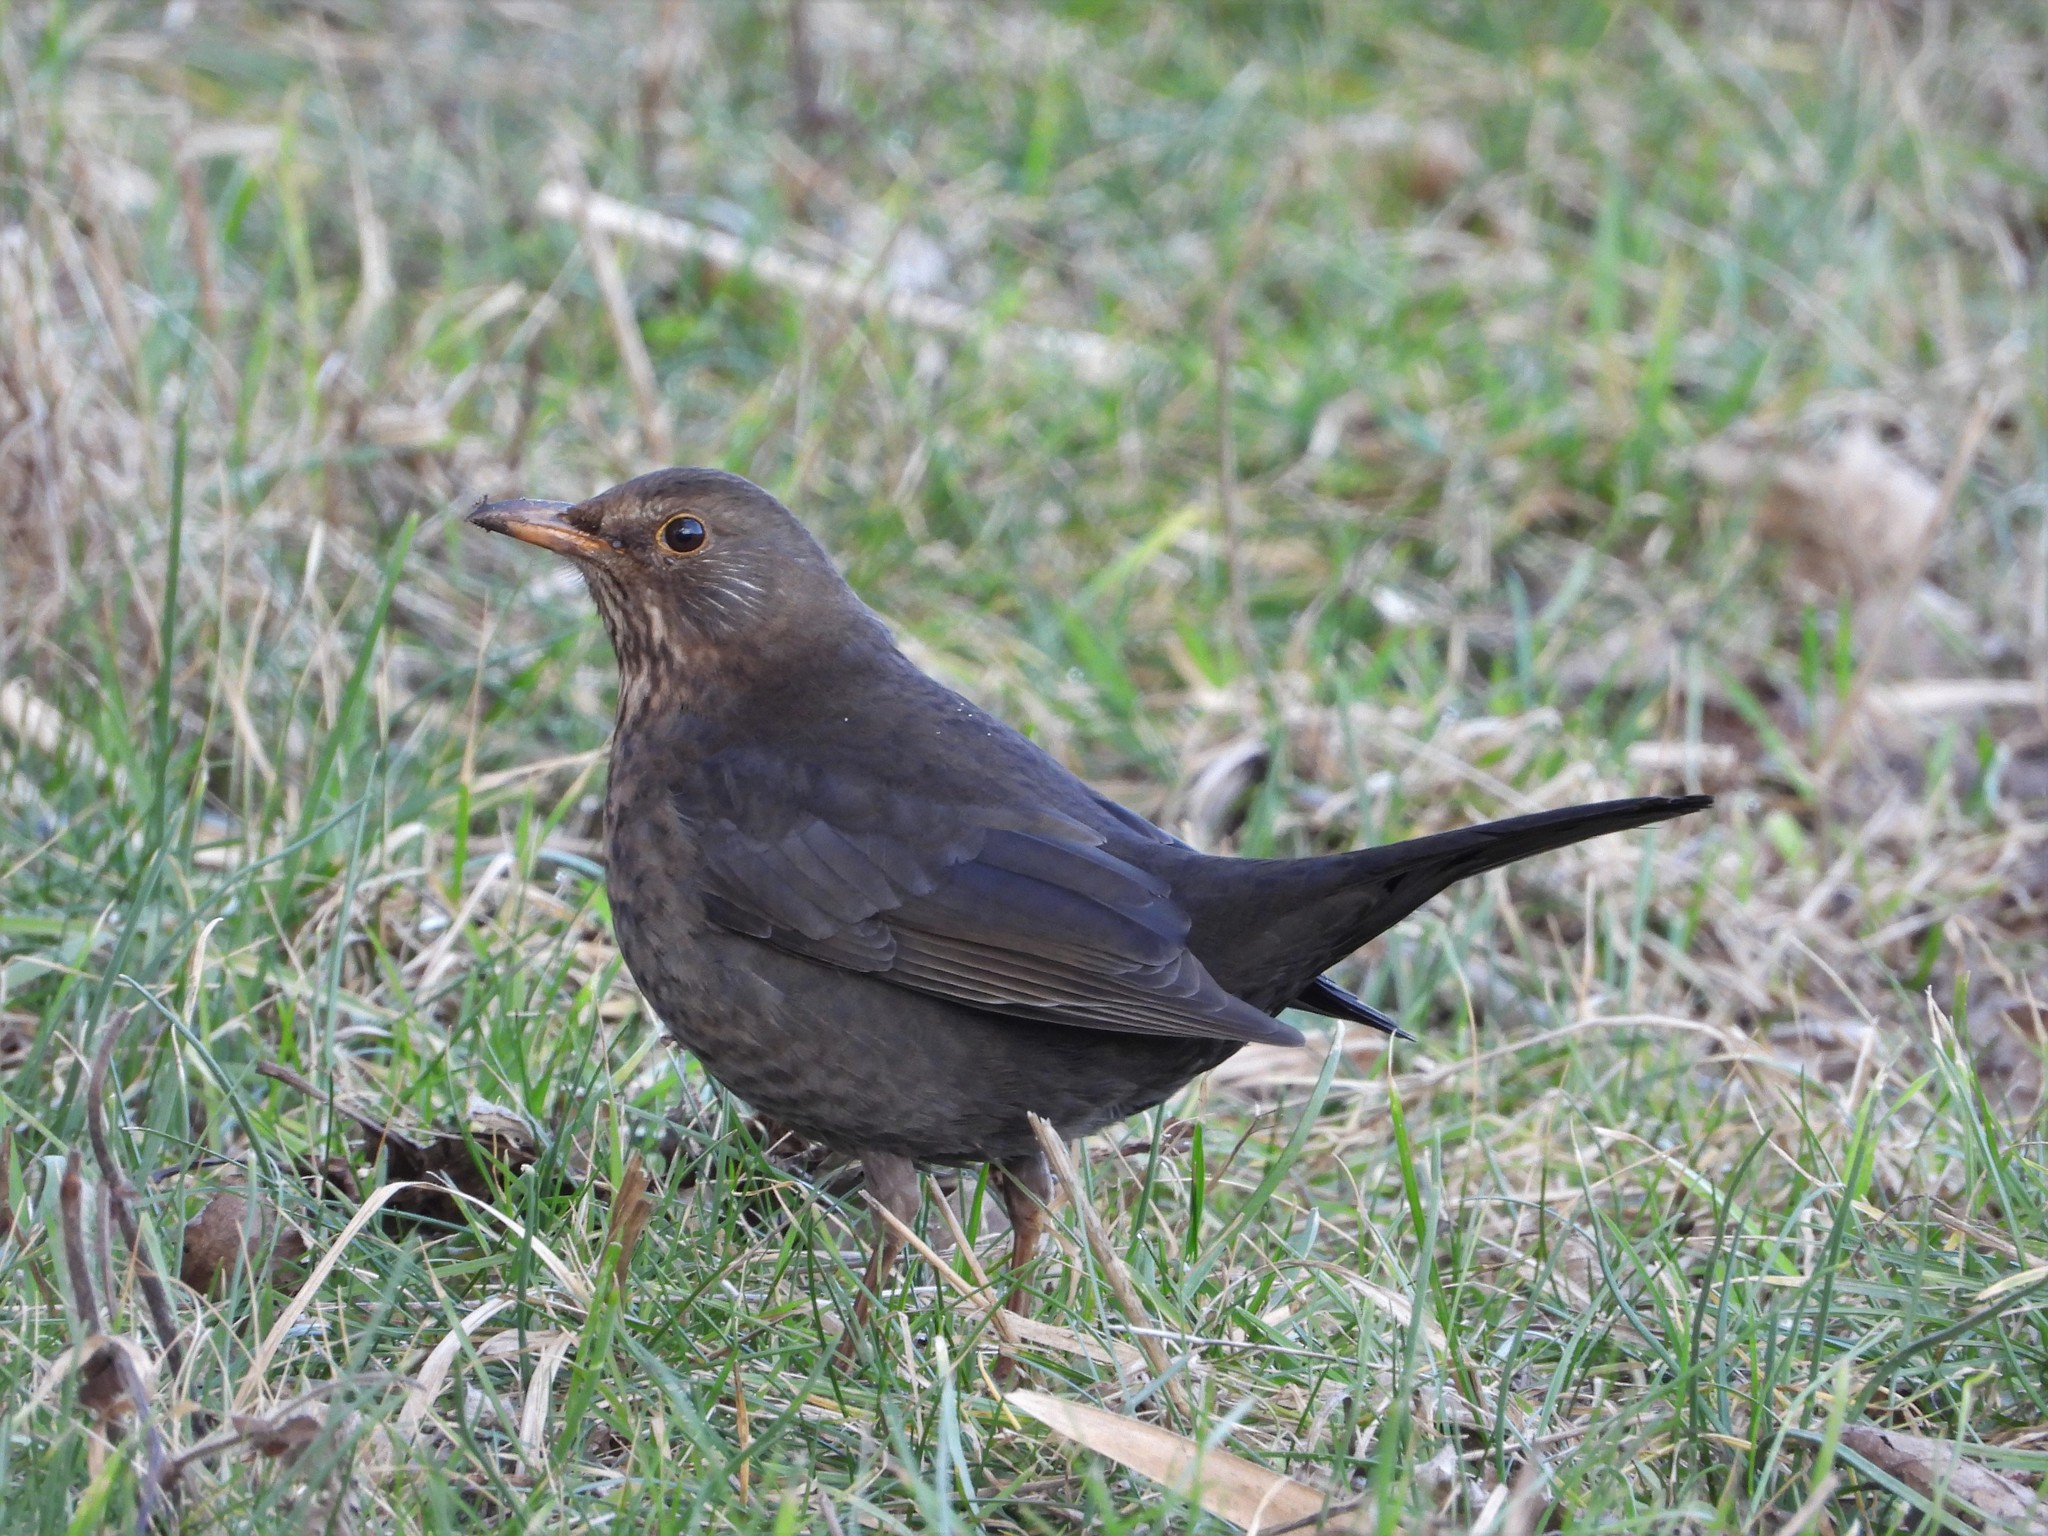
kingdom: Animalia
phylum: Chordata
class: Aves
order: Passeriformes
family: Turdidae
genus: Turdus
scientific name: Turdus merula
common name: Common blackbird
